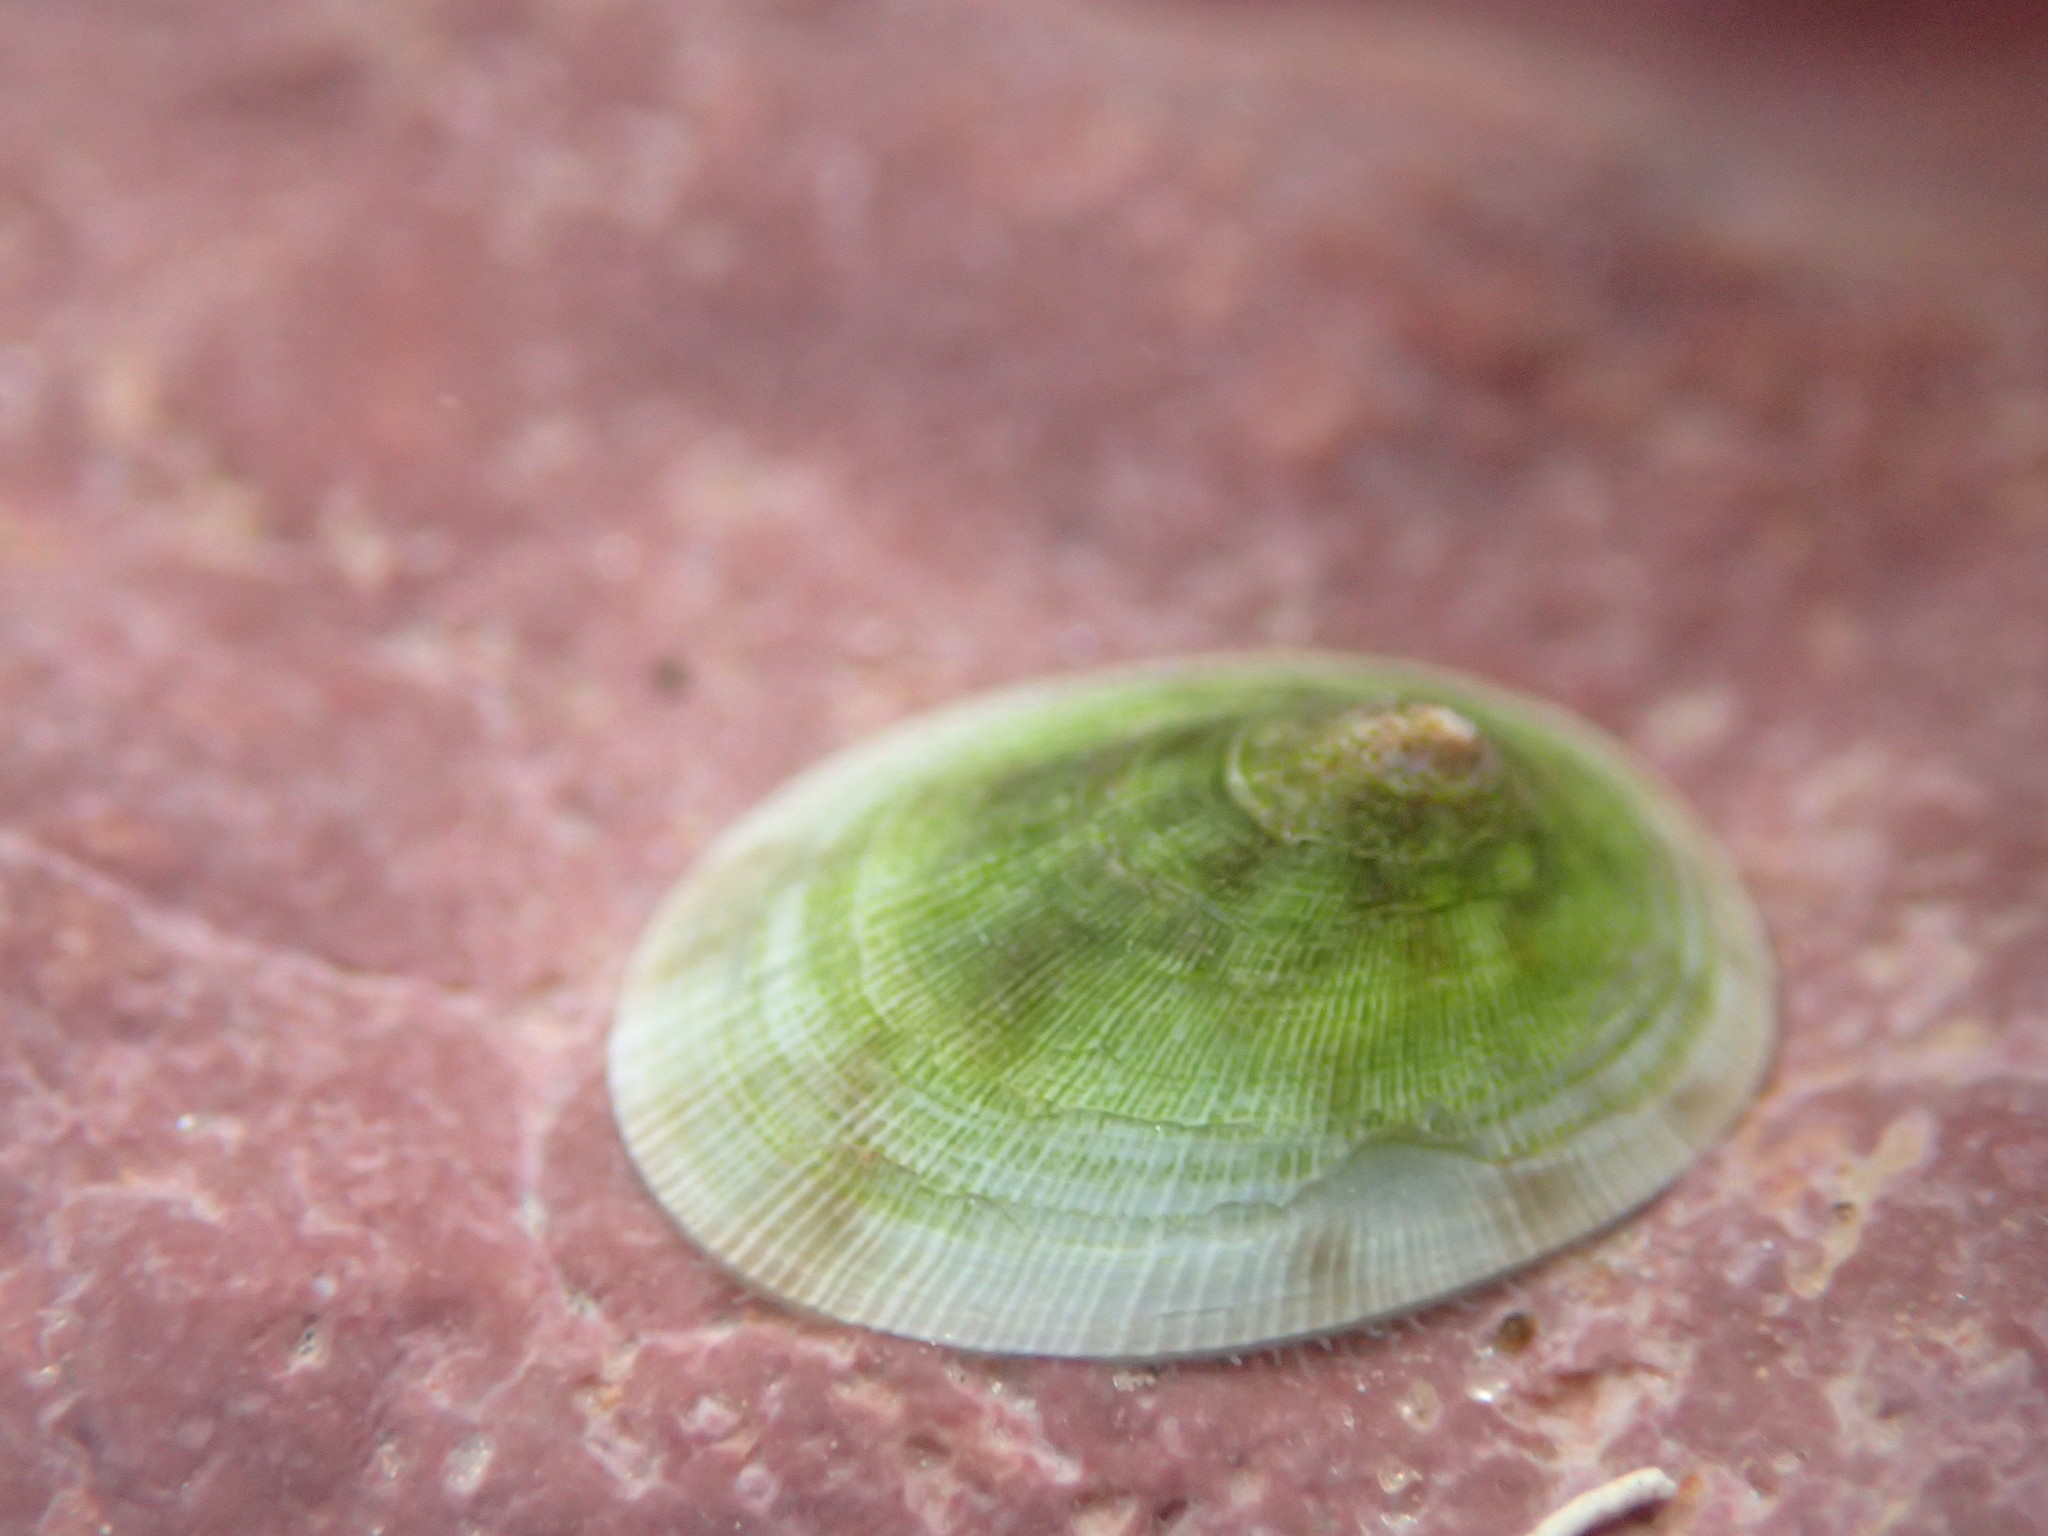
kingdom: Animalia
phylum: Mollusca
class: Gastropoda
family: Lottiidae
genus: Testudinalia
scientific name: Testudinalia testudinalis
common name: Common tortoiseshell limpet
